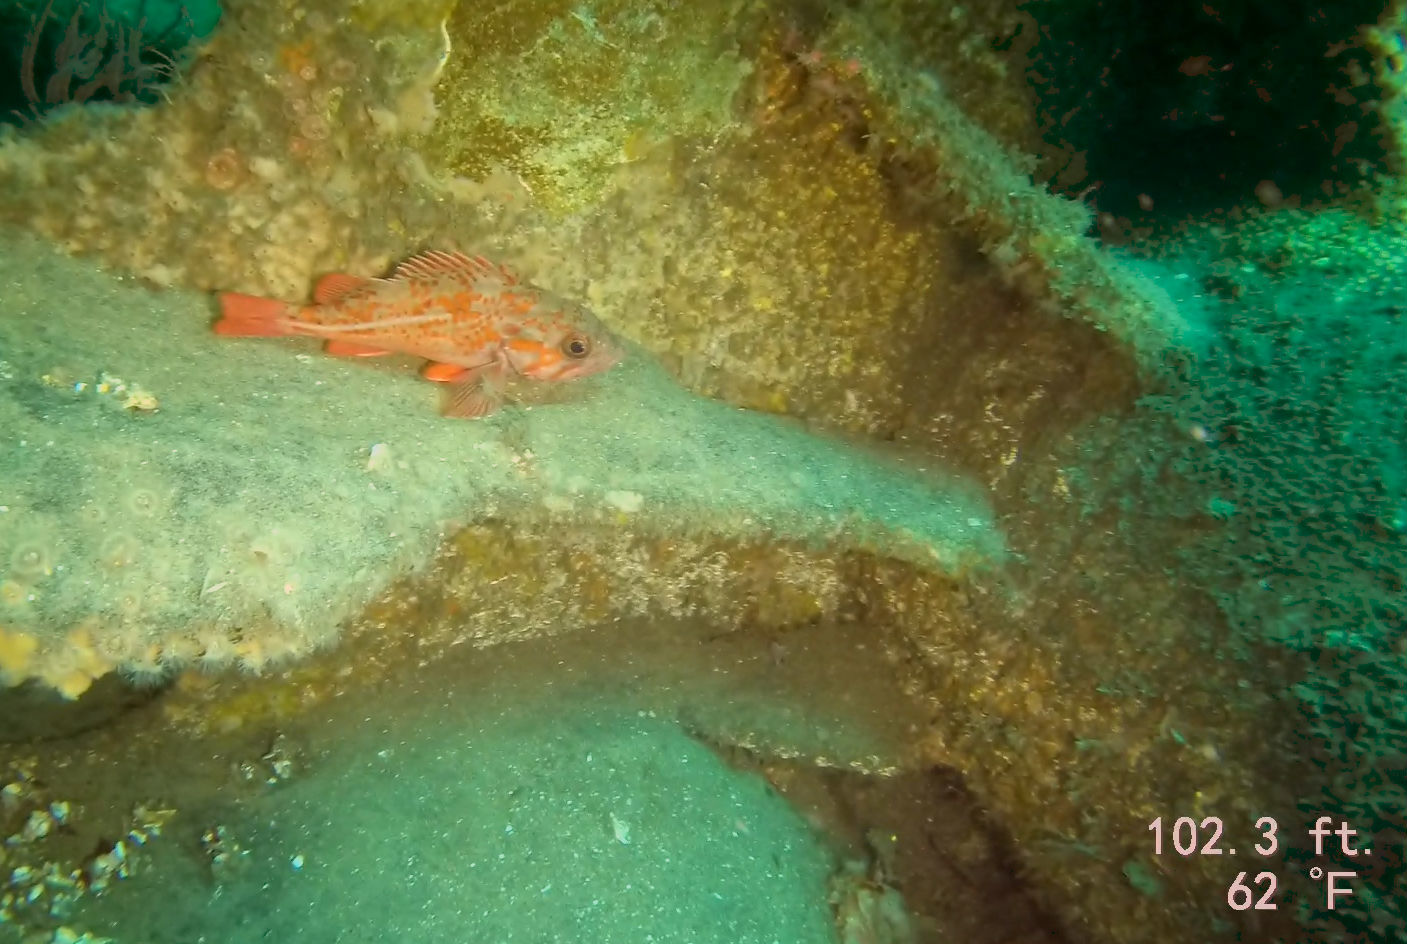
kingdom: Animalia
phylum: Chordata
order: Scorpaeniformes
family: Sebastidae
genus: Sebastes
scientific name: Sebastes miniatus
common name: Vermilion rockfish
